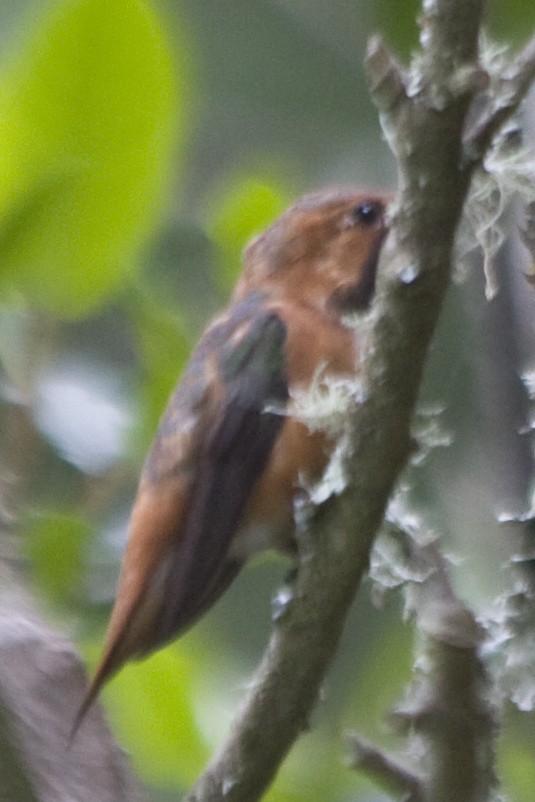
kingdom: Animalia
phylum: Chordata
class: Aves
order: Apodiformes
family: Trochilidae
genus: Selasphorus
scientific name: Selasphorus sasin
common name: Allen's hummingbird
